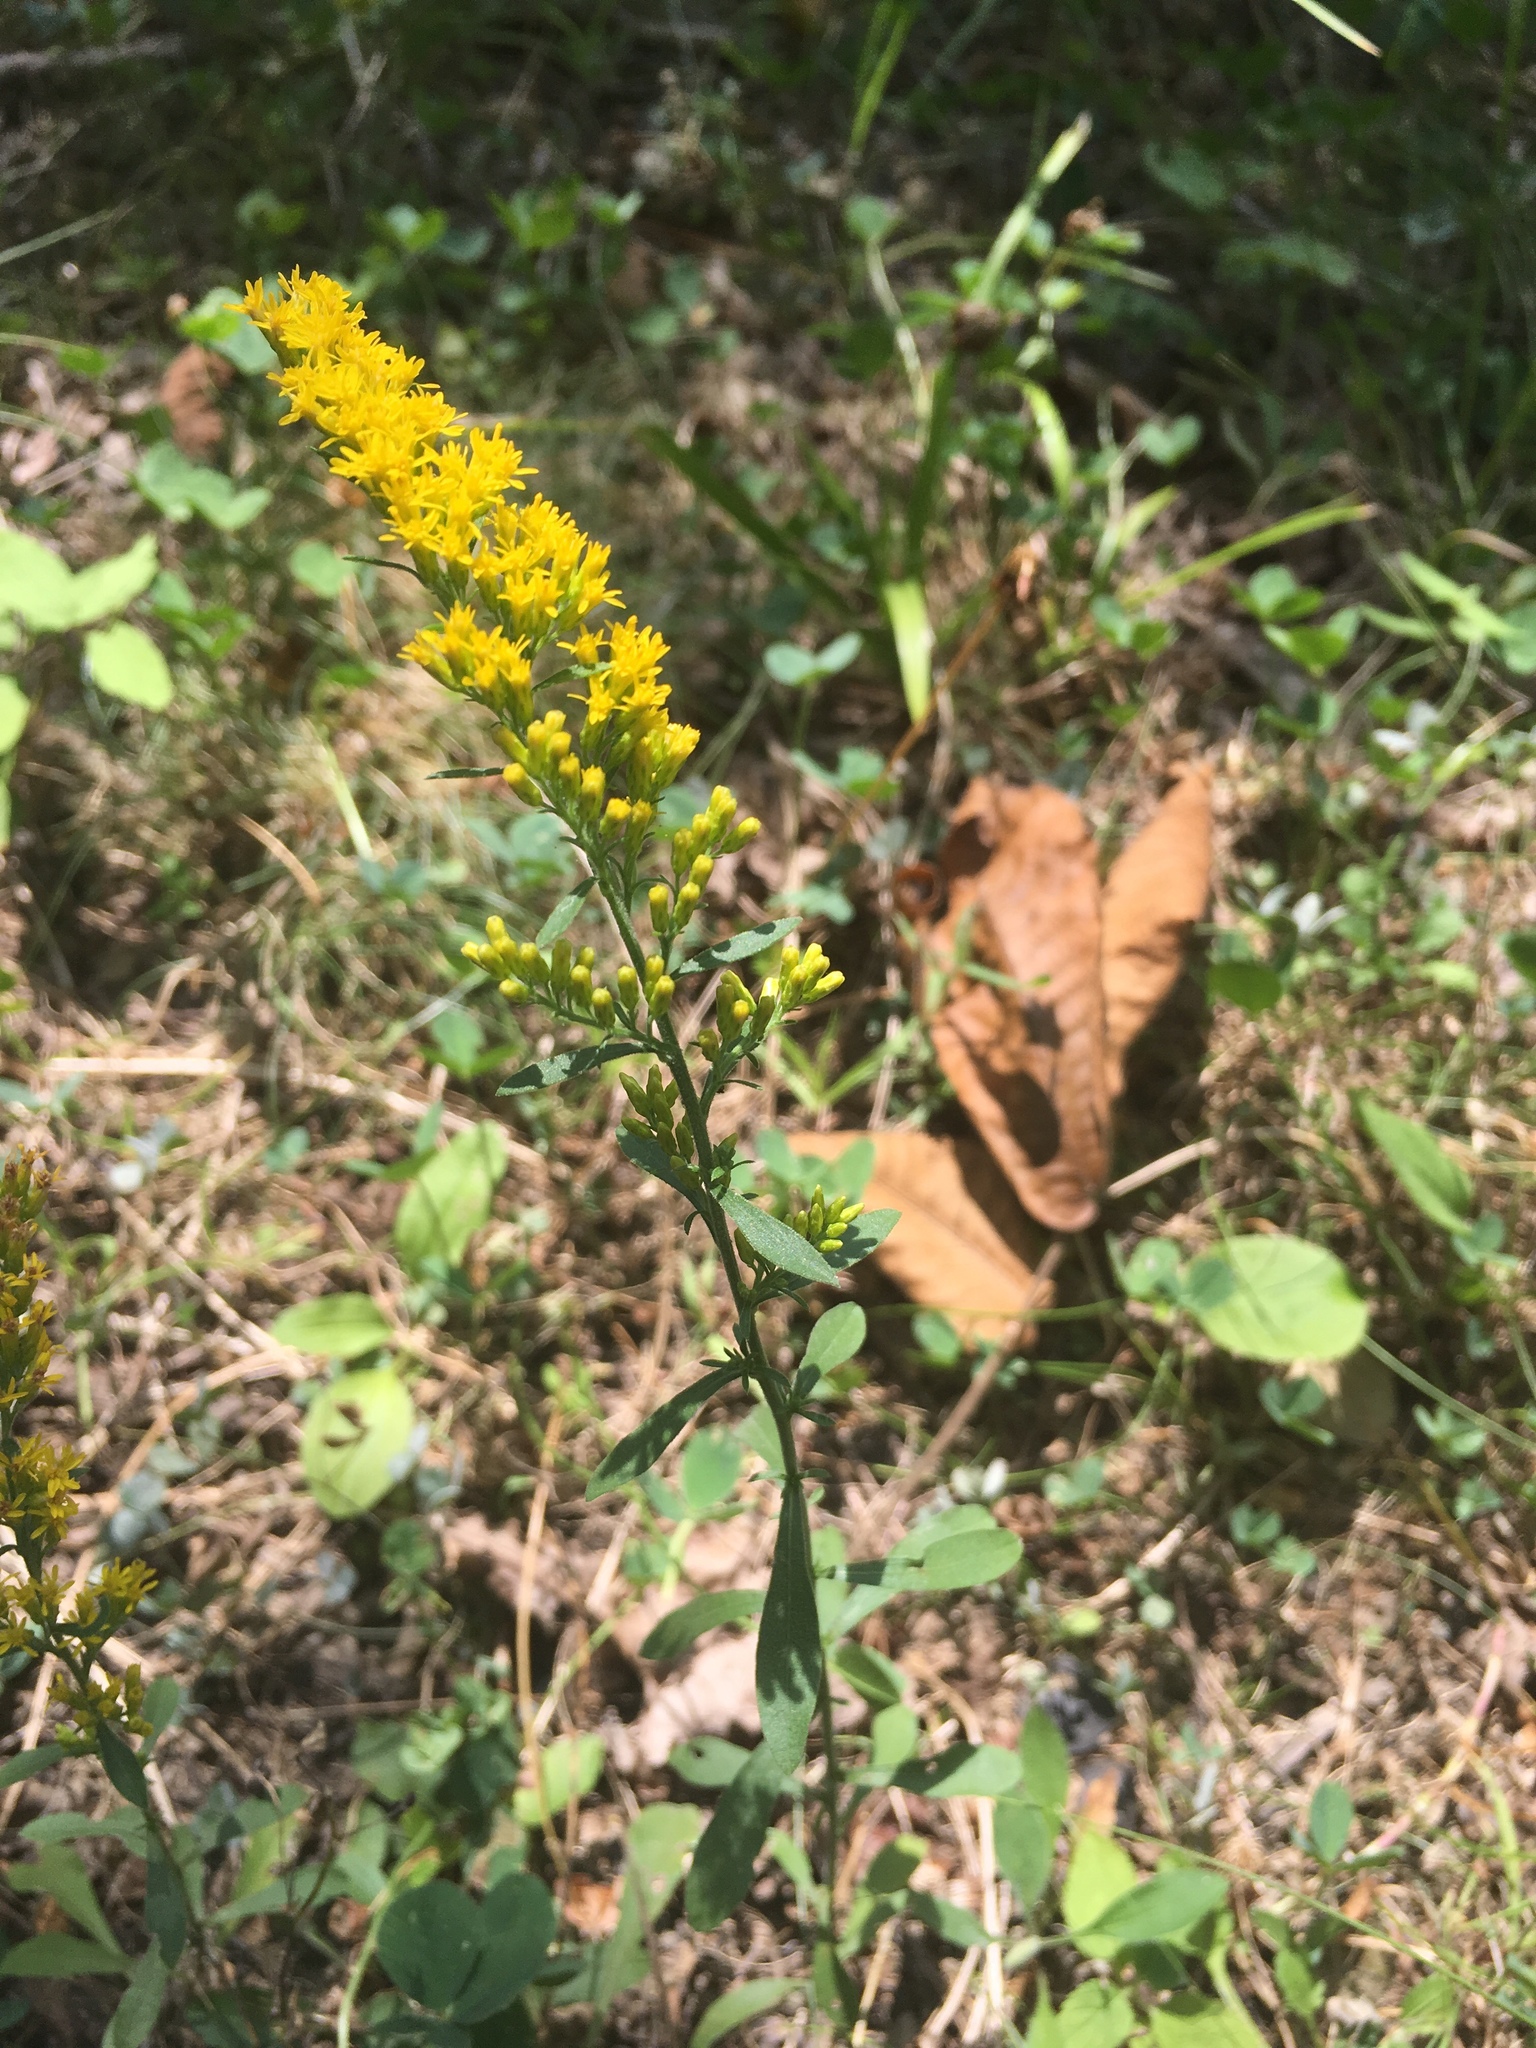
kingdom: Plantae
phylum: Tracheophyta
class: Magnoliopsida
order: Asterales
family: Asteraceae
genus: Solidago
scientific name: Solidago altissima
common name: Late goldenrod
